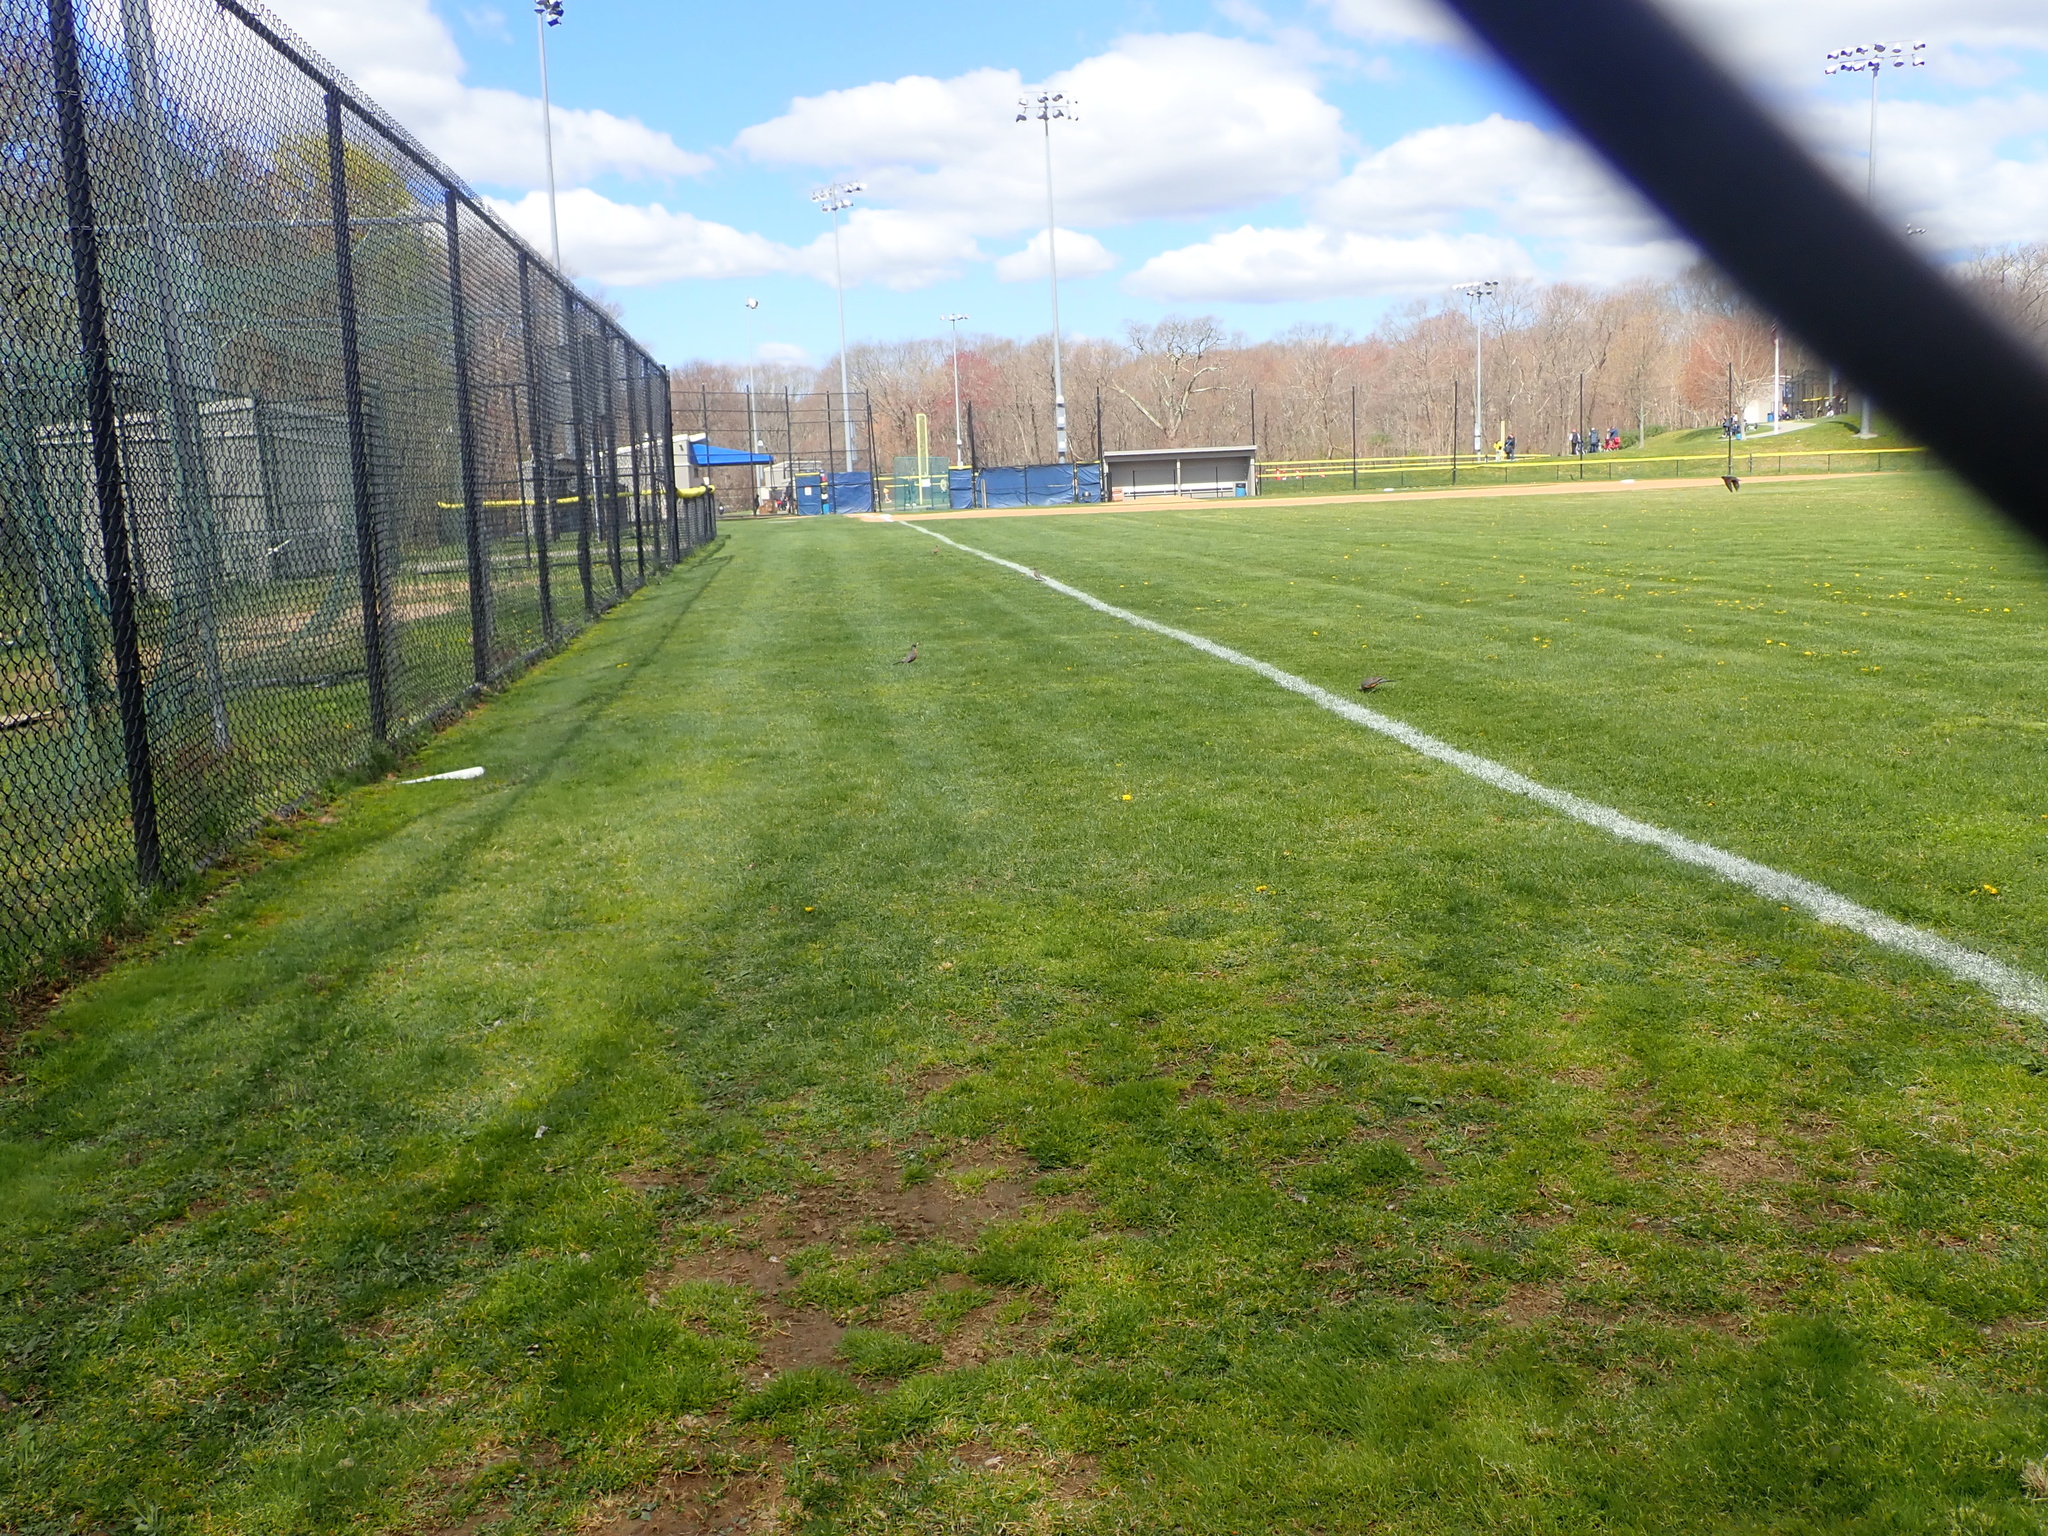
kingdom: Animalia
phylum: Chordata
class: Aves
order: Passeriformes
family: Turdidae
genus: Turdus
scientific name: Turdus migratorius
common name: American robin
